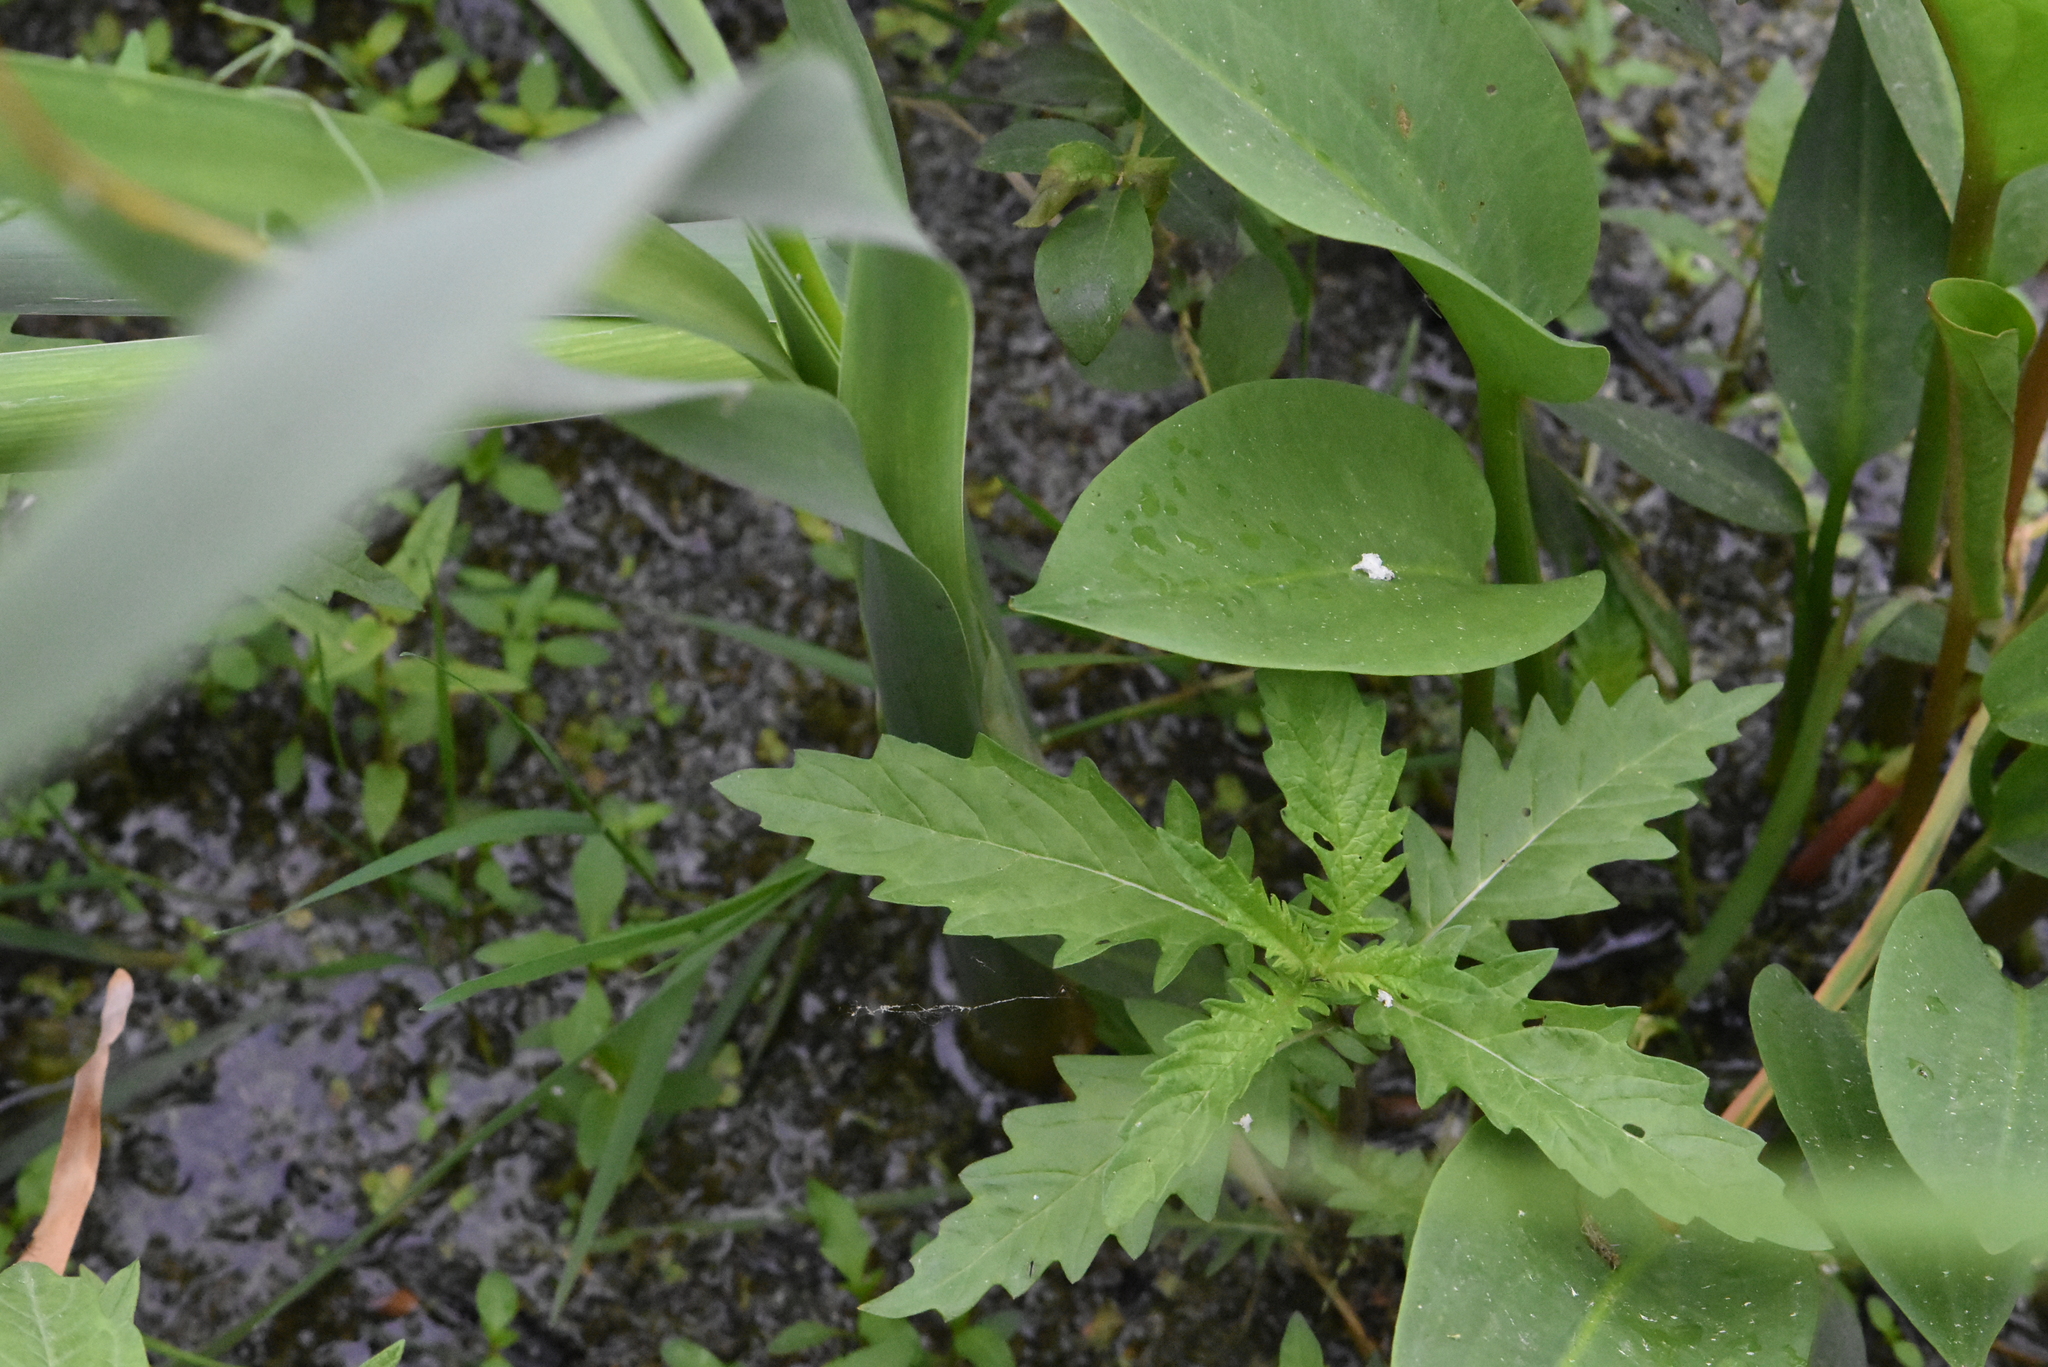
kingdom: Plantae
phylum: Tracheophyta
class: Magnoliopsida
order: Lamiales
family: Lamiaceae
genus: Lycopus
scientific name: Lycopus europaeus
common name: European bugleweed
